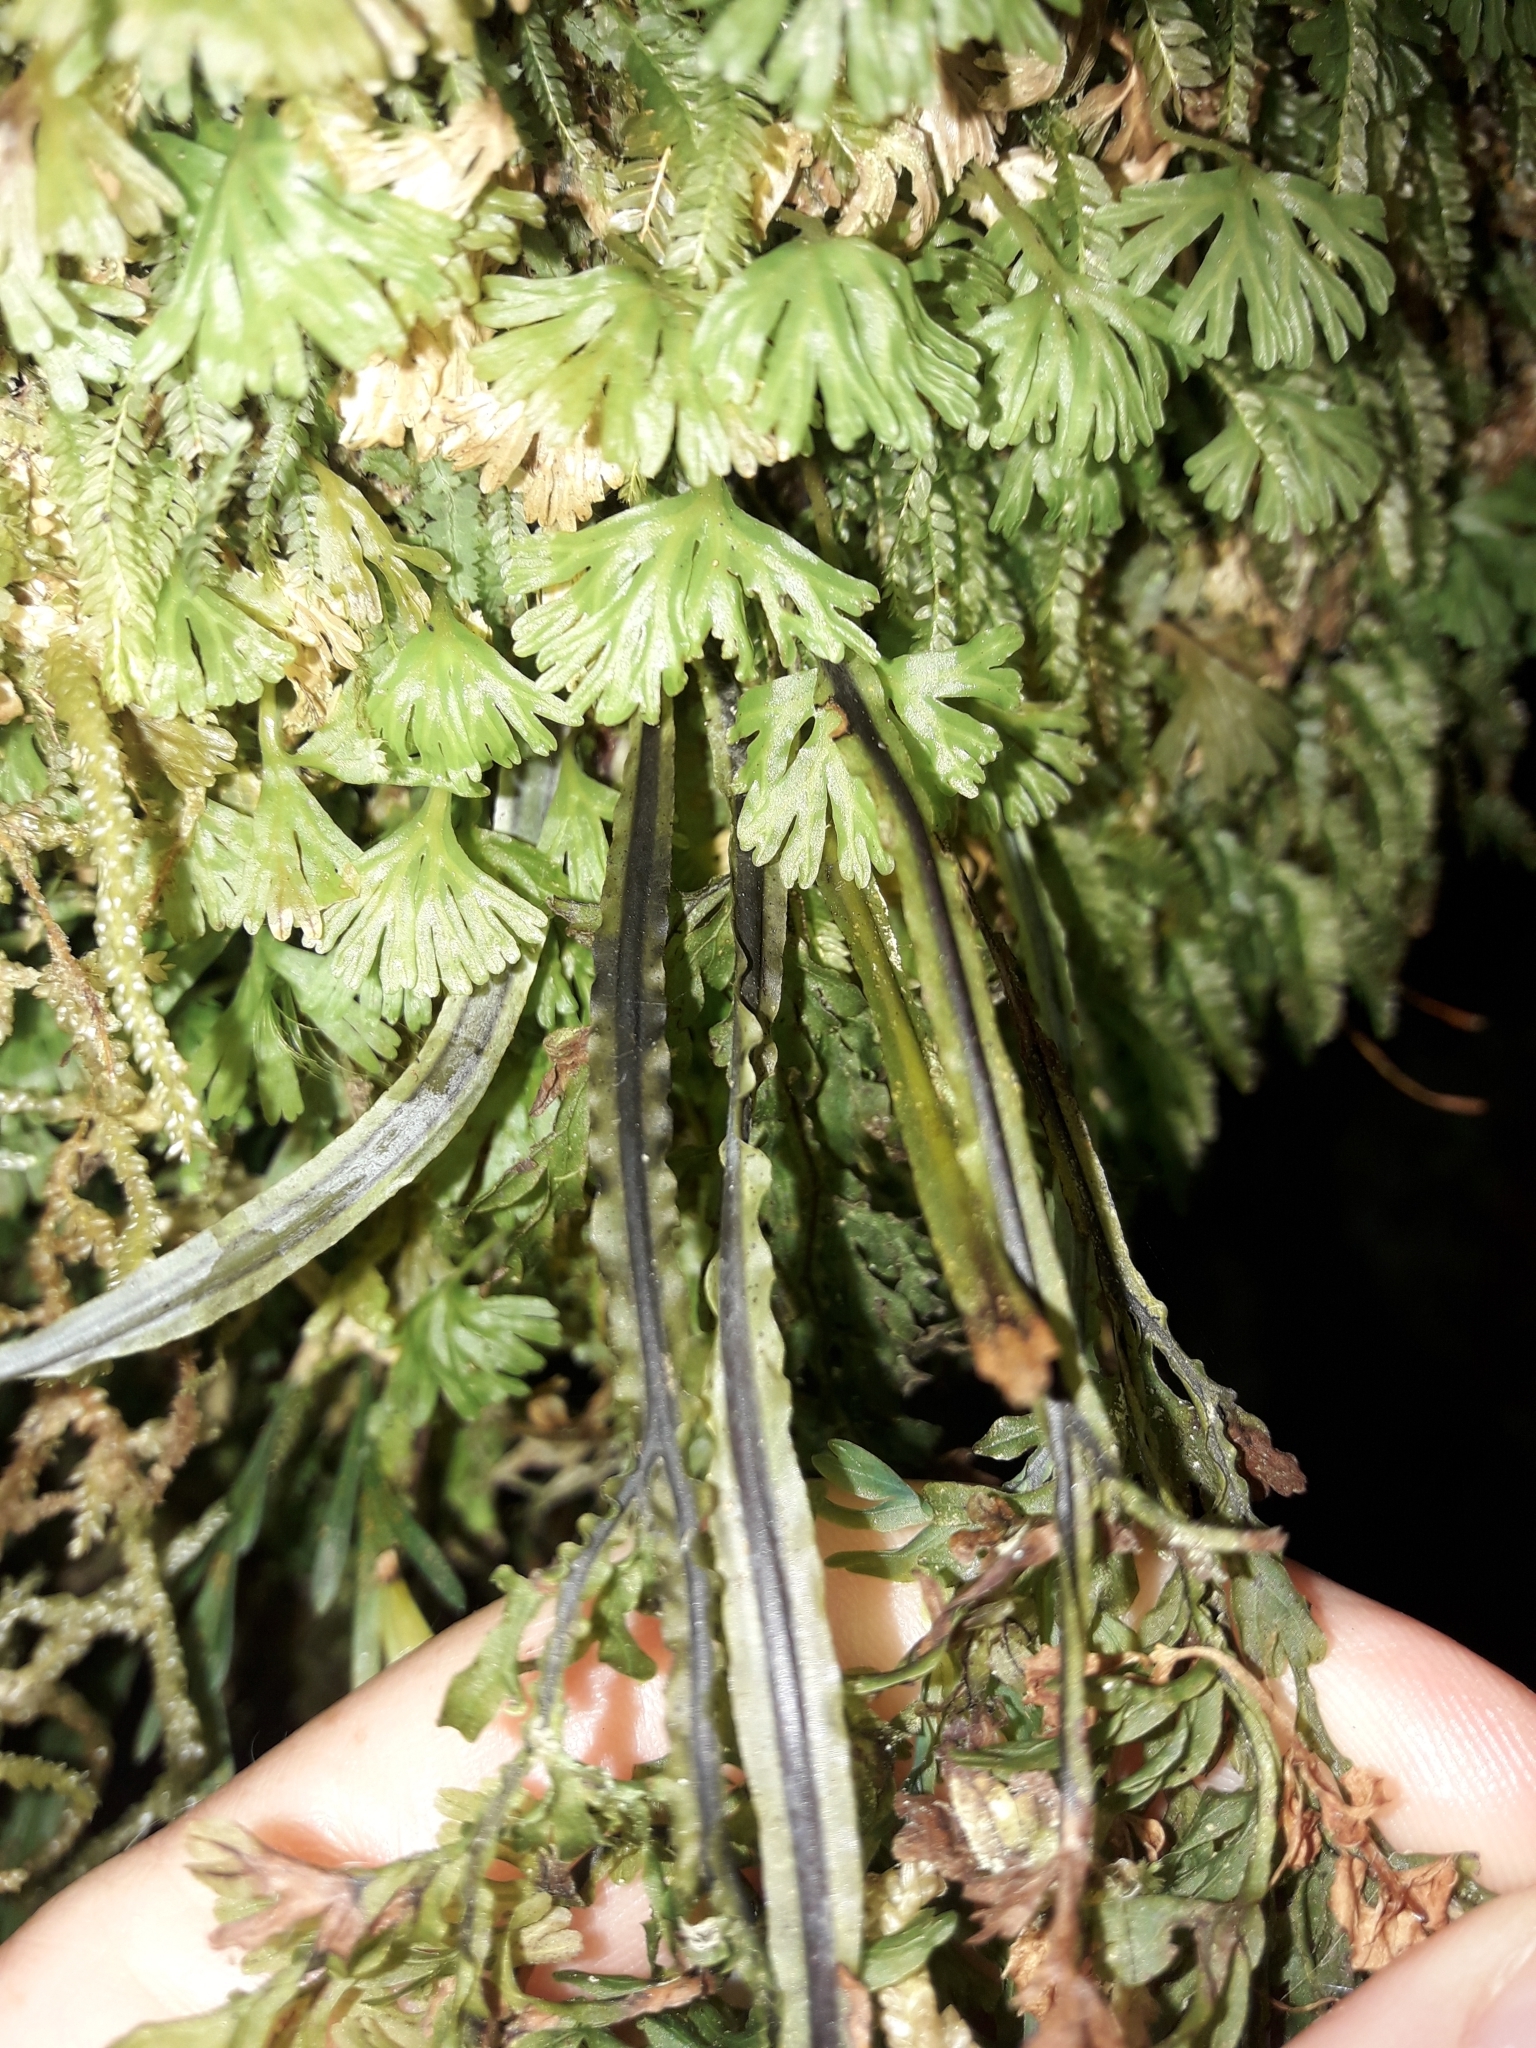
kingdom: Plantae
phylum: Tracheophyta
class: Polypodiopsida
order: Hymenophyllales
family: Hymenophyllaceae
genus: Hymenophyllum
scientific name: Hymenophyllum pulcherrimum
